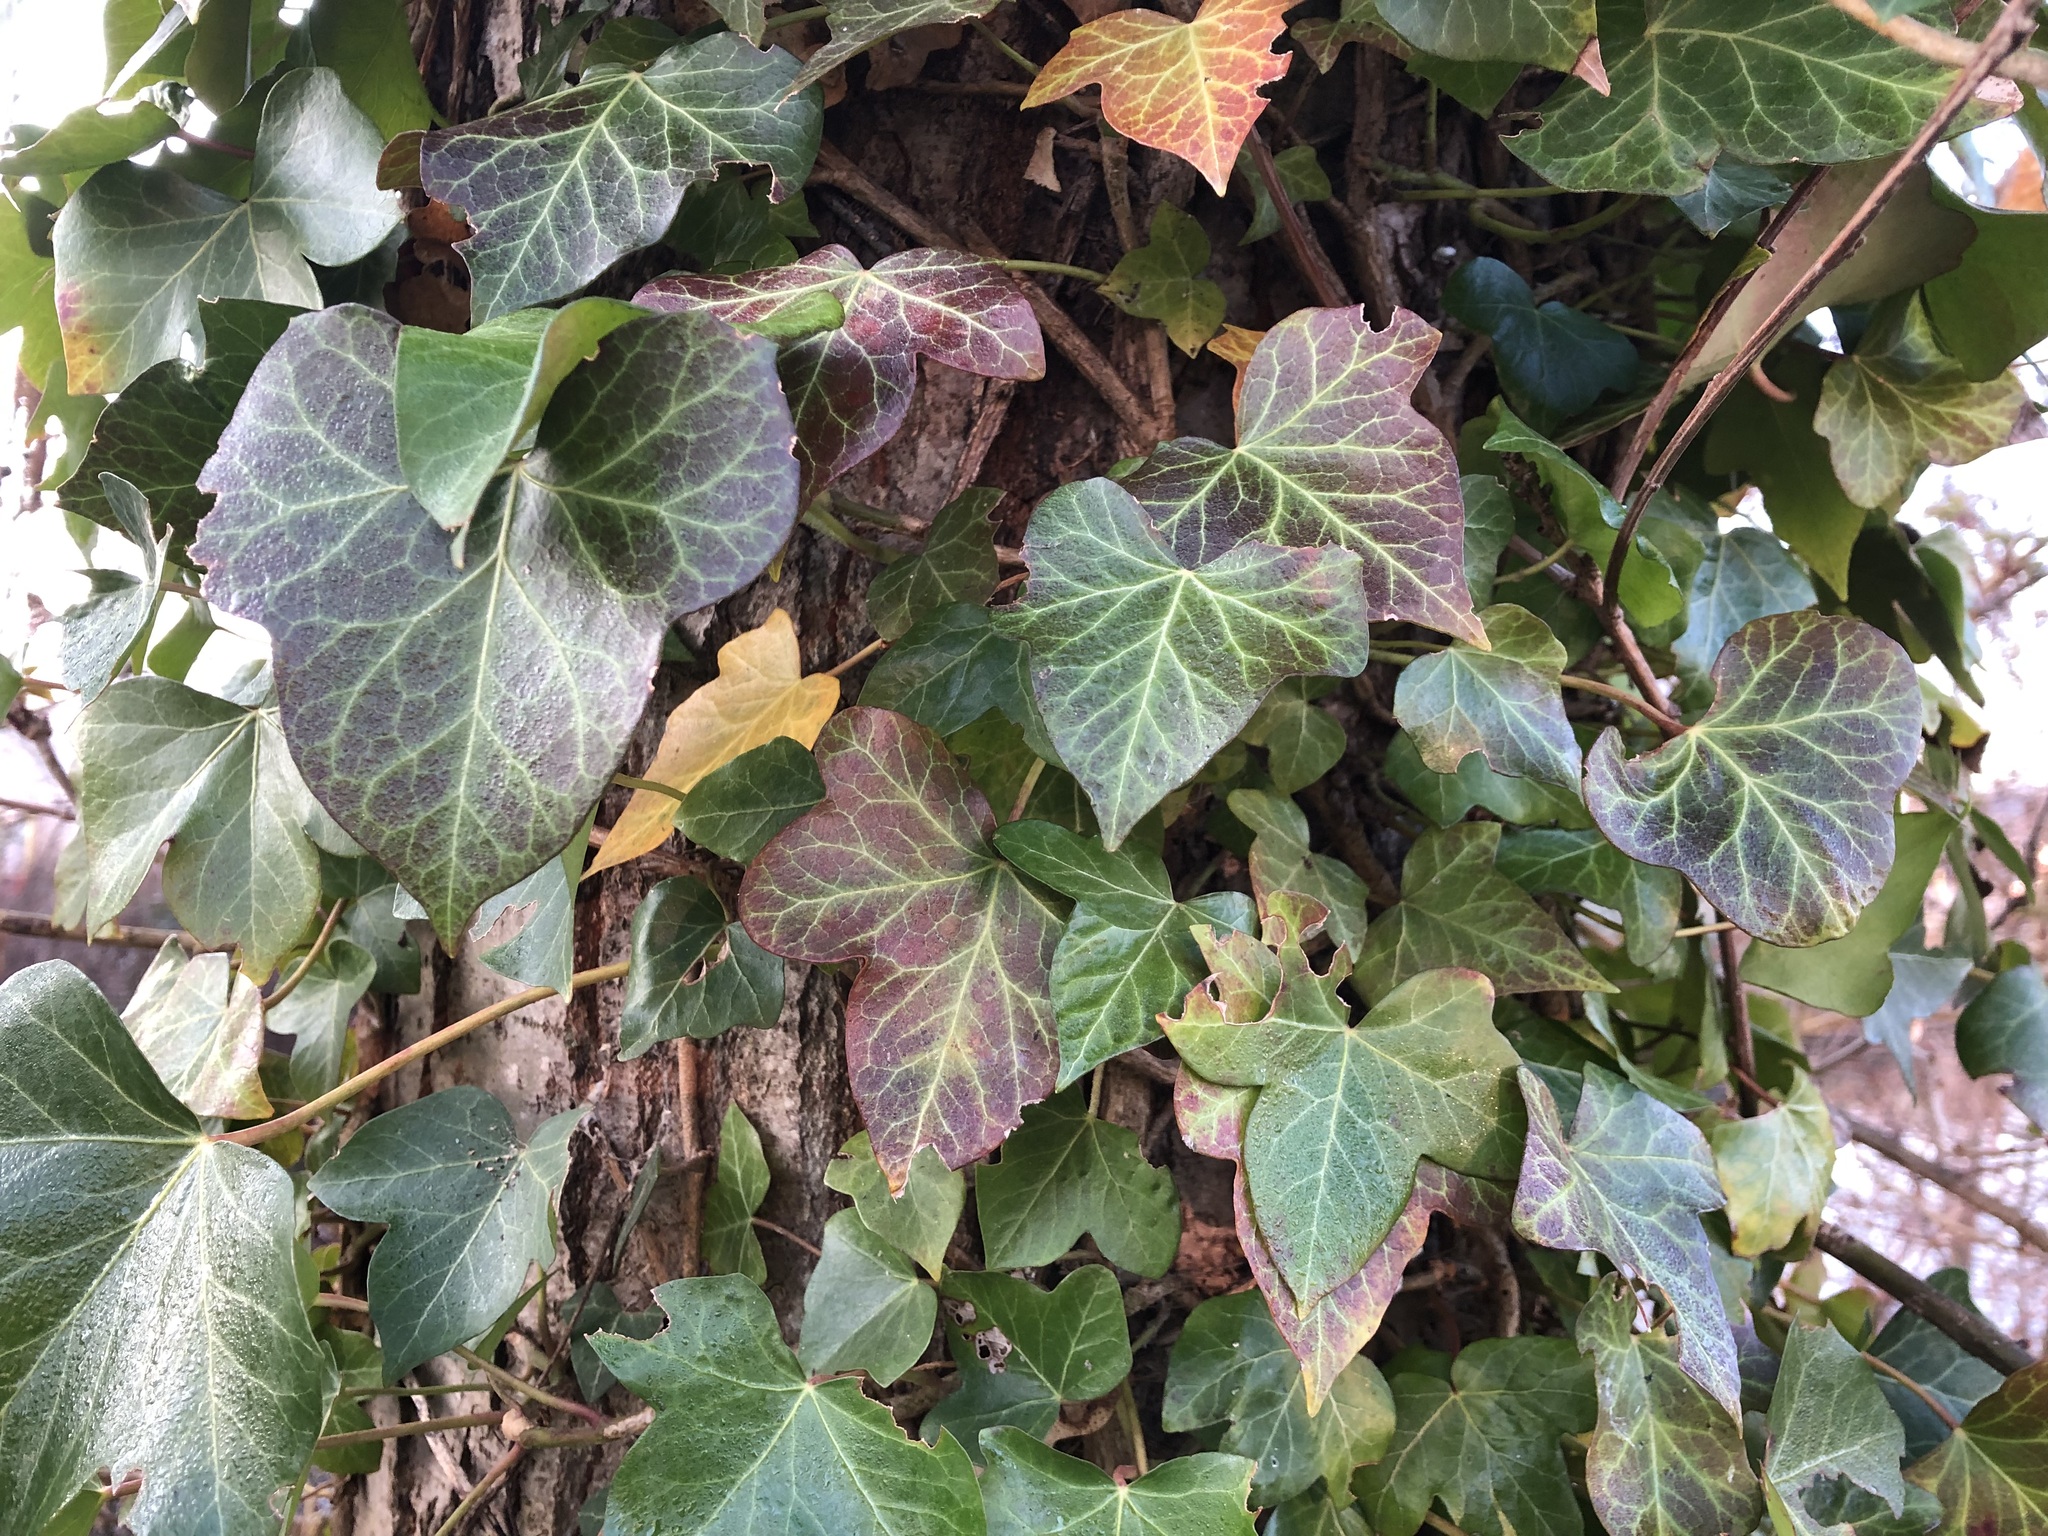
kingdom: Plantae
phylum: Tracheophyta
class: Magnoliopsida
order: Apiales
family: Araliaceae
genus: Hedera
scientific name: Hedera helix
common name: Ivy
